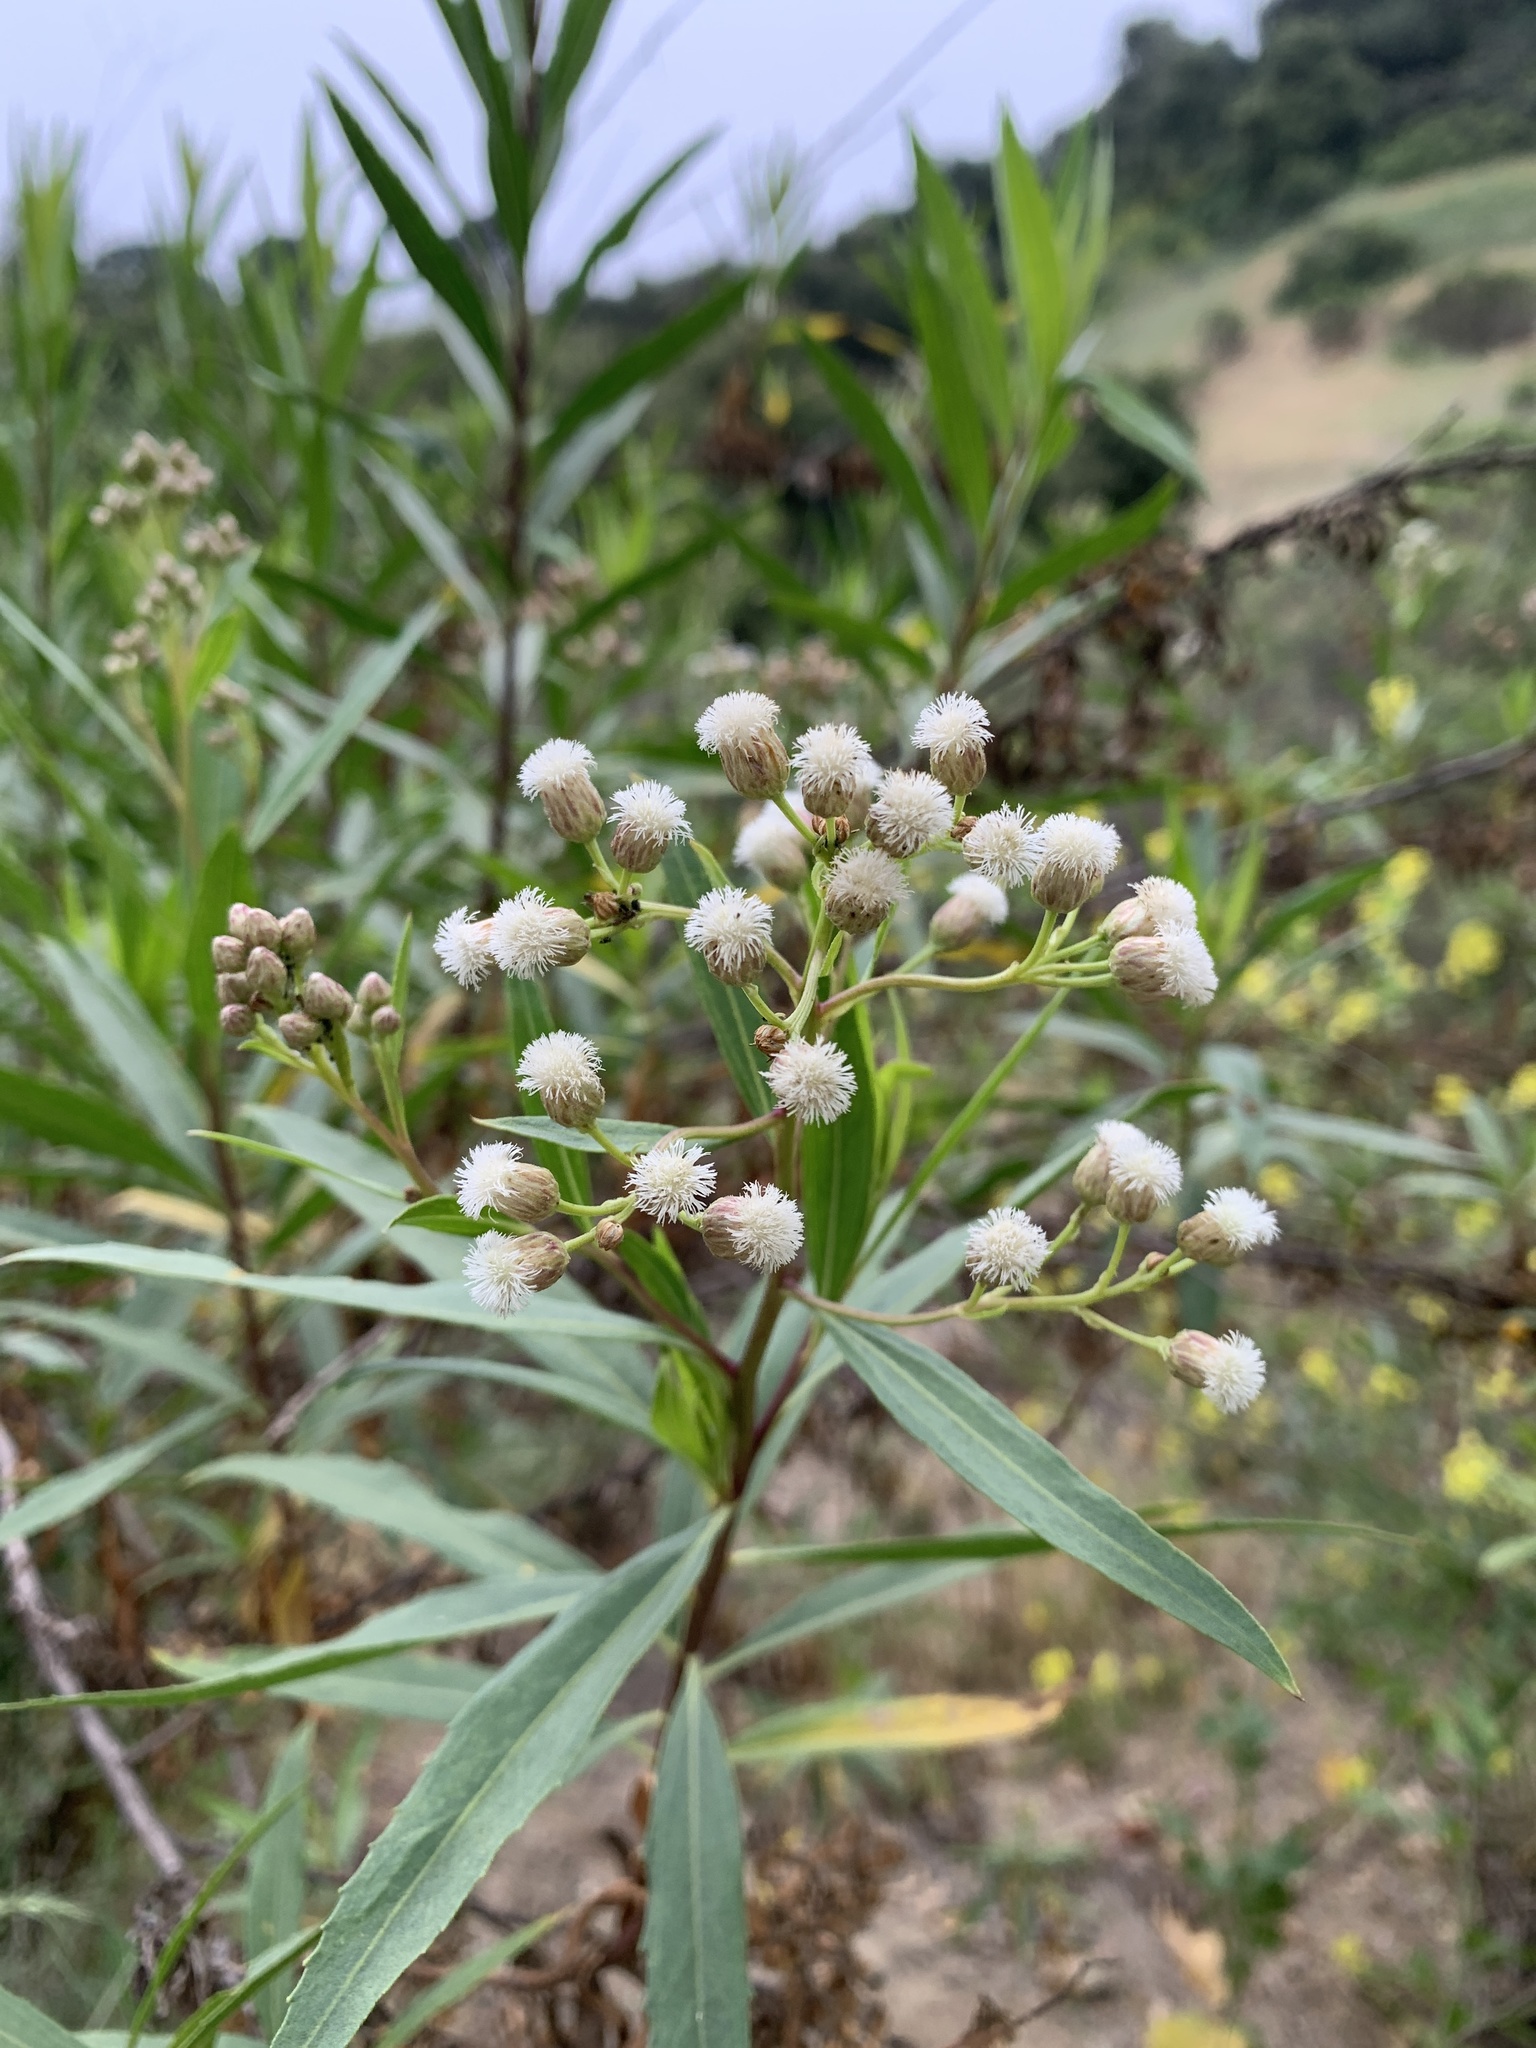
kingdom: Plantae
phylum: Tracheophyta
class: Magnoliopsida
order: Asterales
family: Asteraceae
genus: Baccharis
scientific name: Baccharis salicifolia
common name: Sticky baccharis
